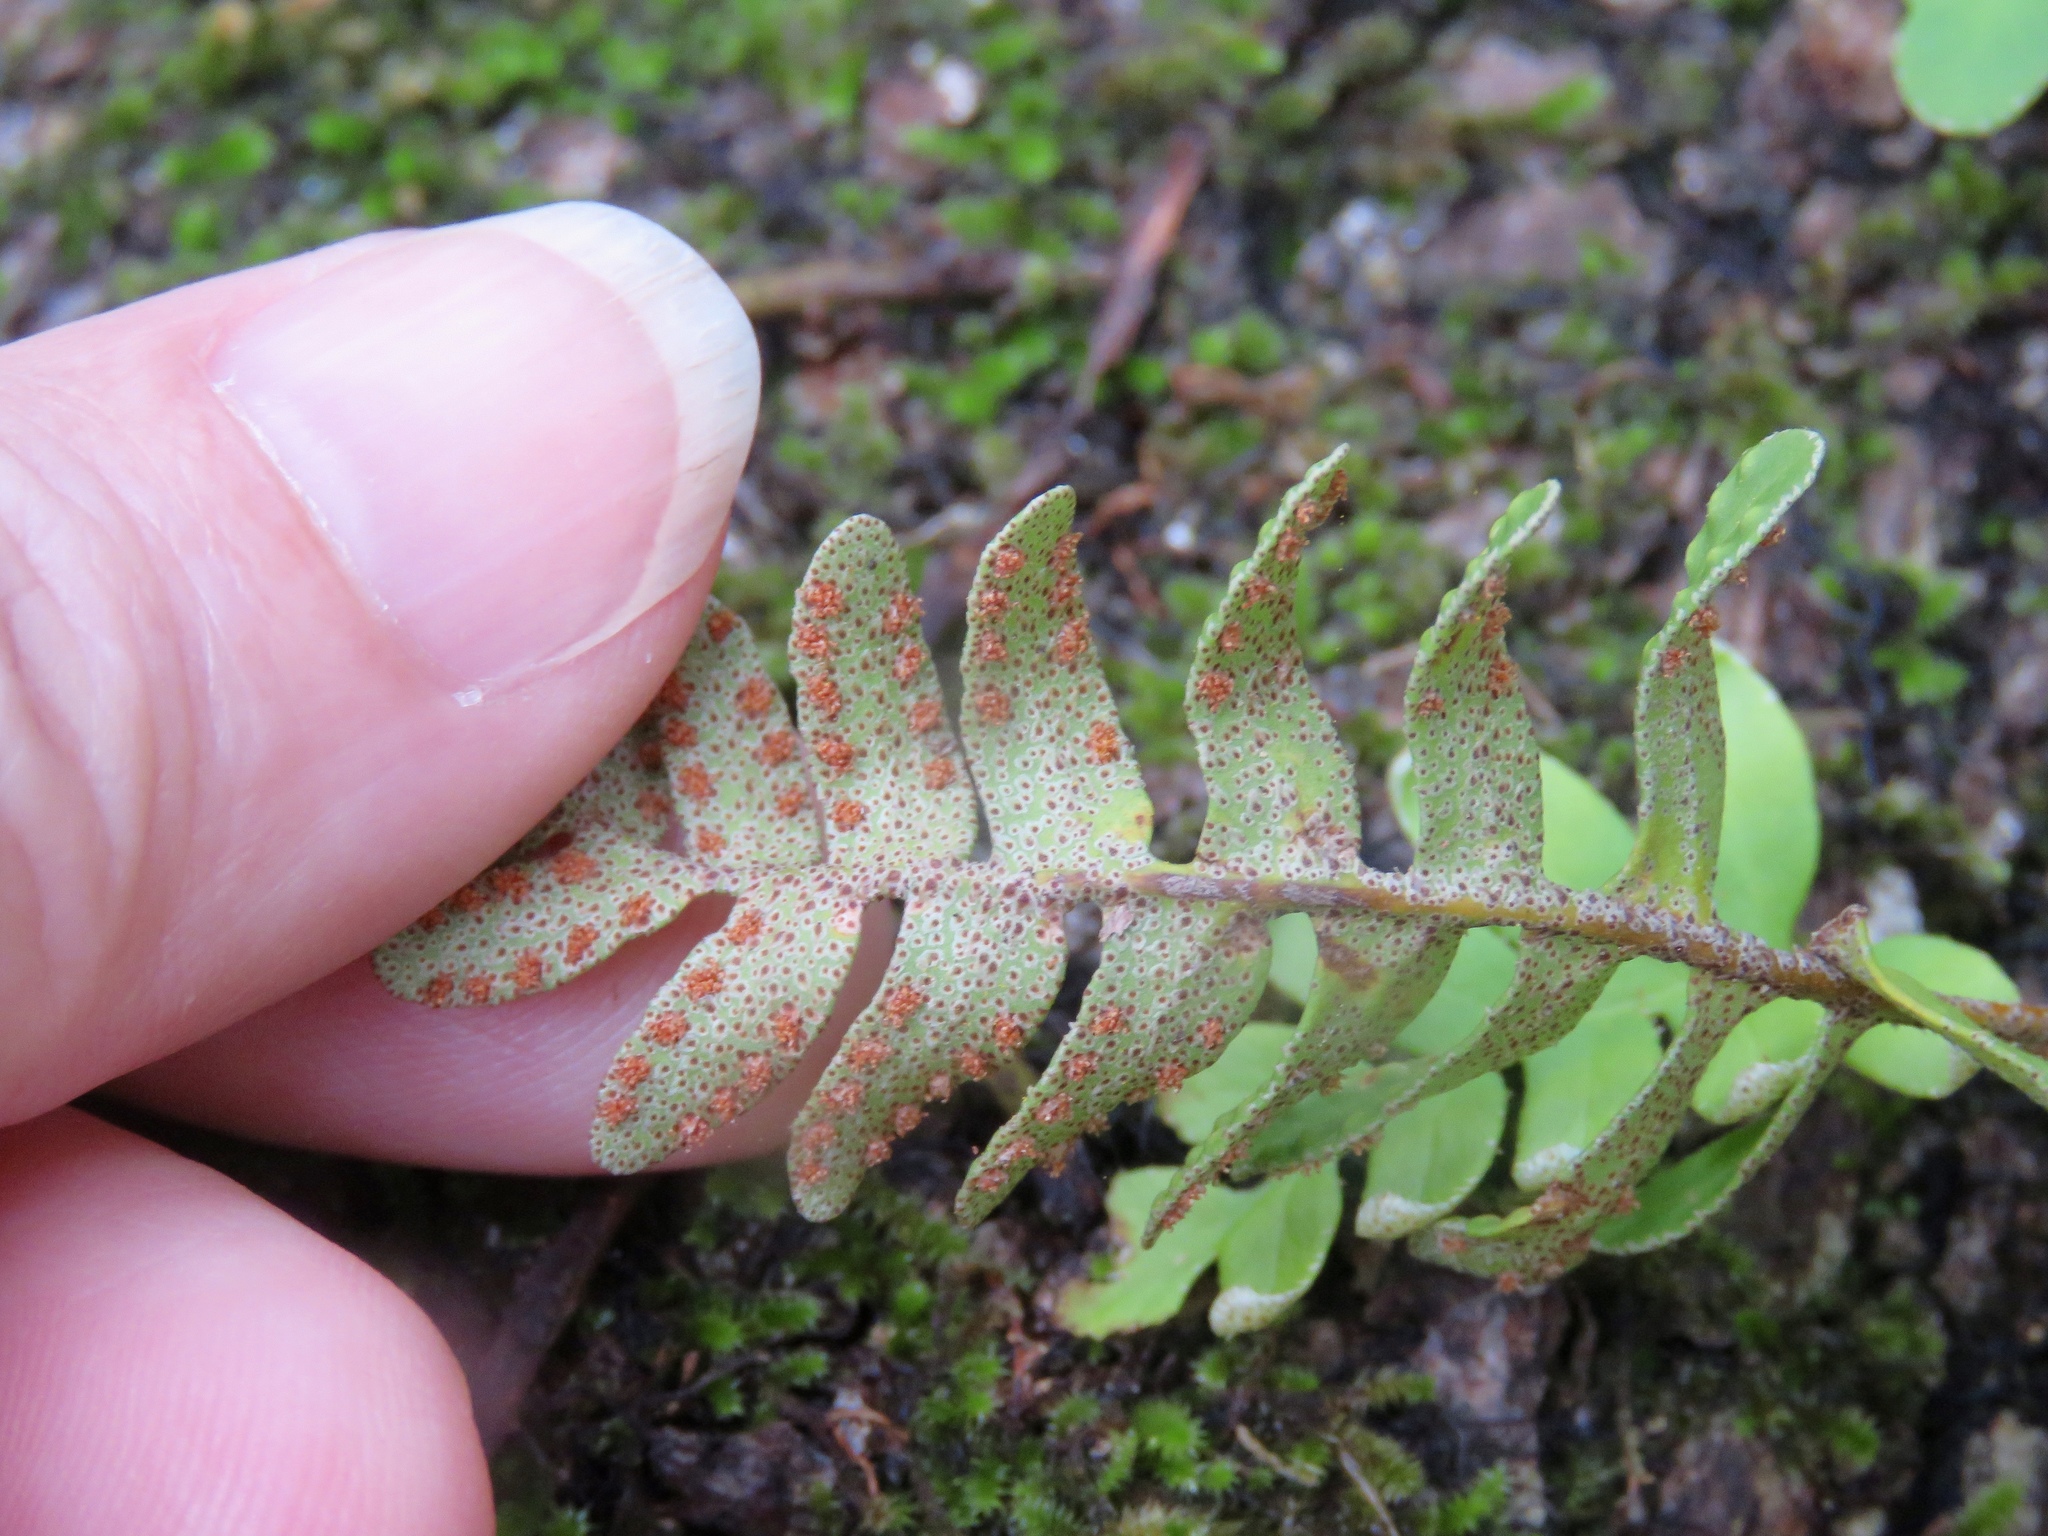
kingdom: Plantae
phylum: Tracheophyta
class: Polypodiopsida
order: Polypodiales
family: Polypodiaceae
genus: Pleopeltis
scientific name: Pleopeltis michauxiana
